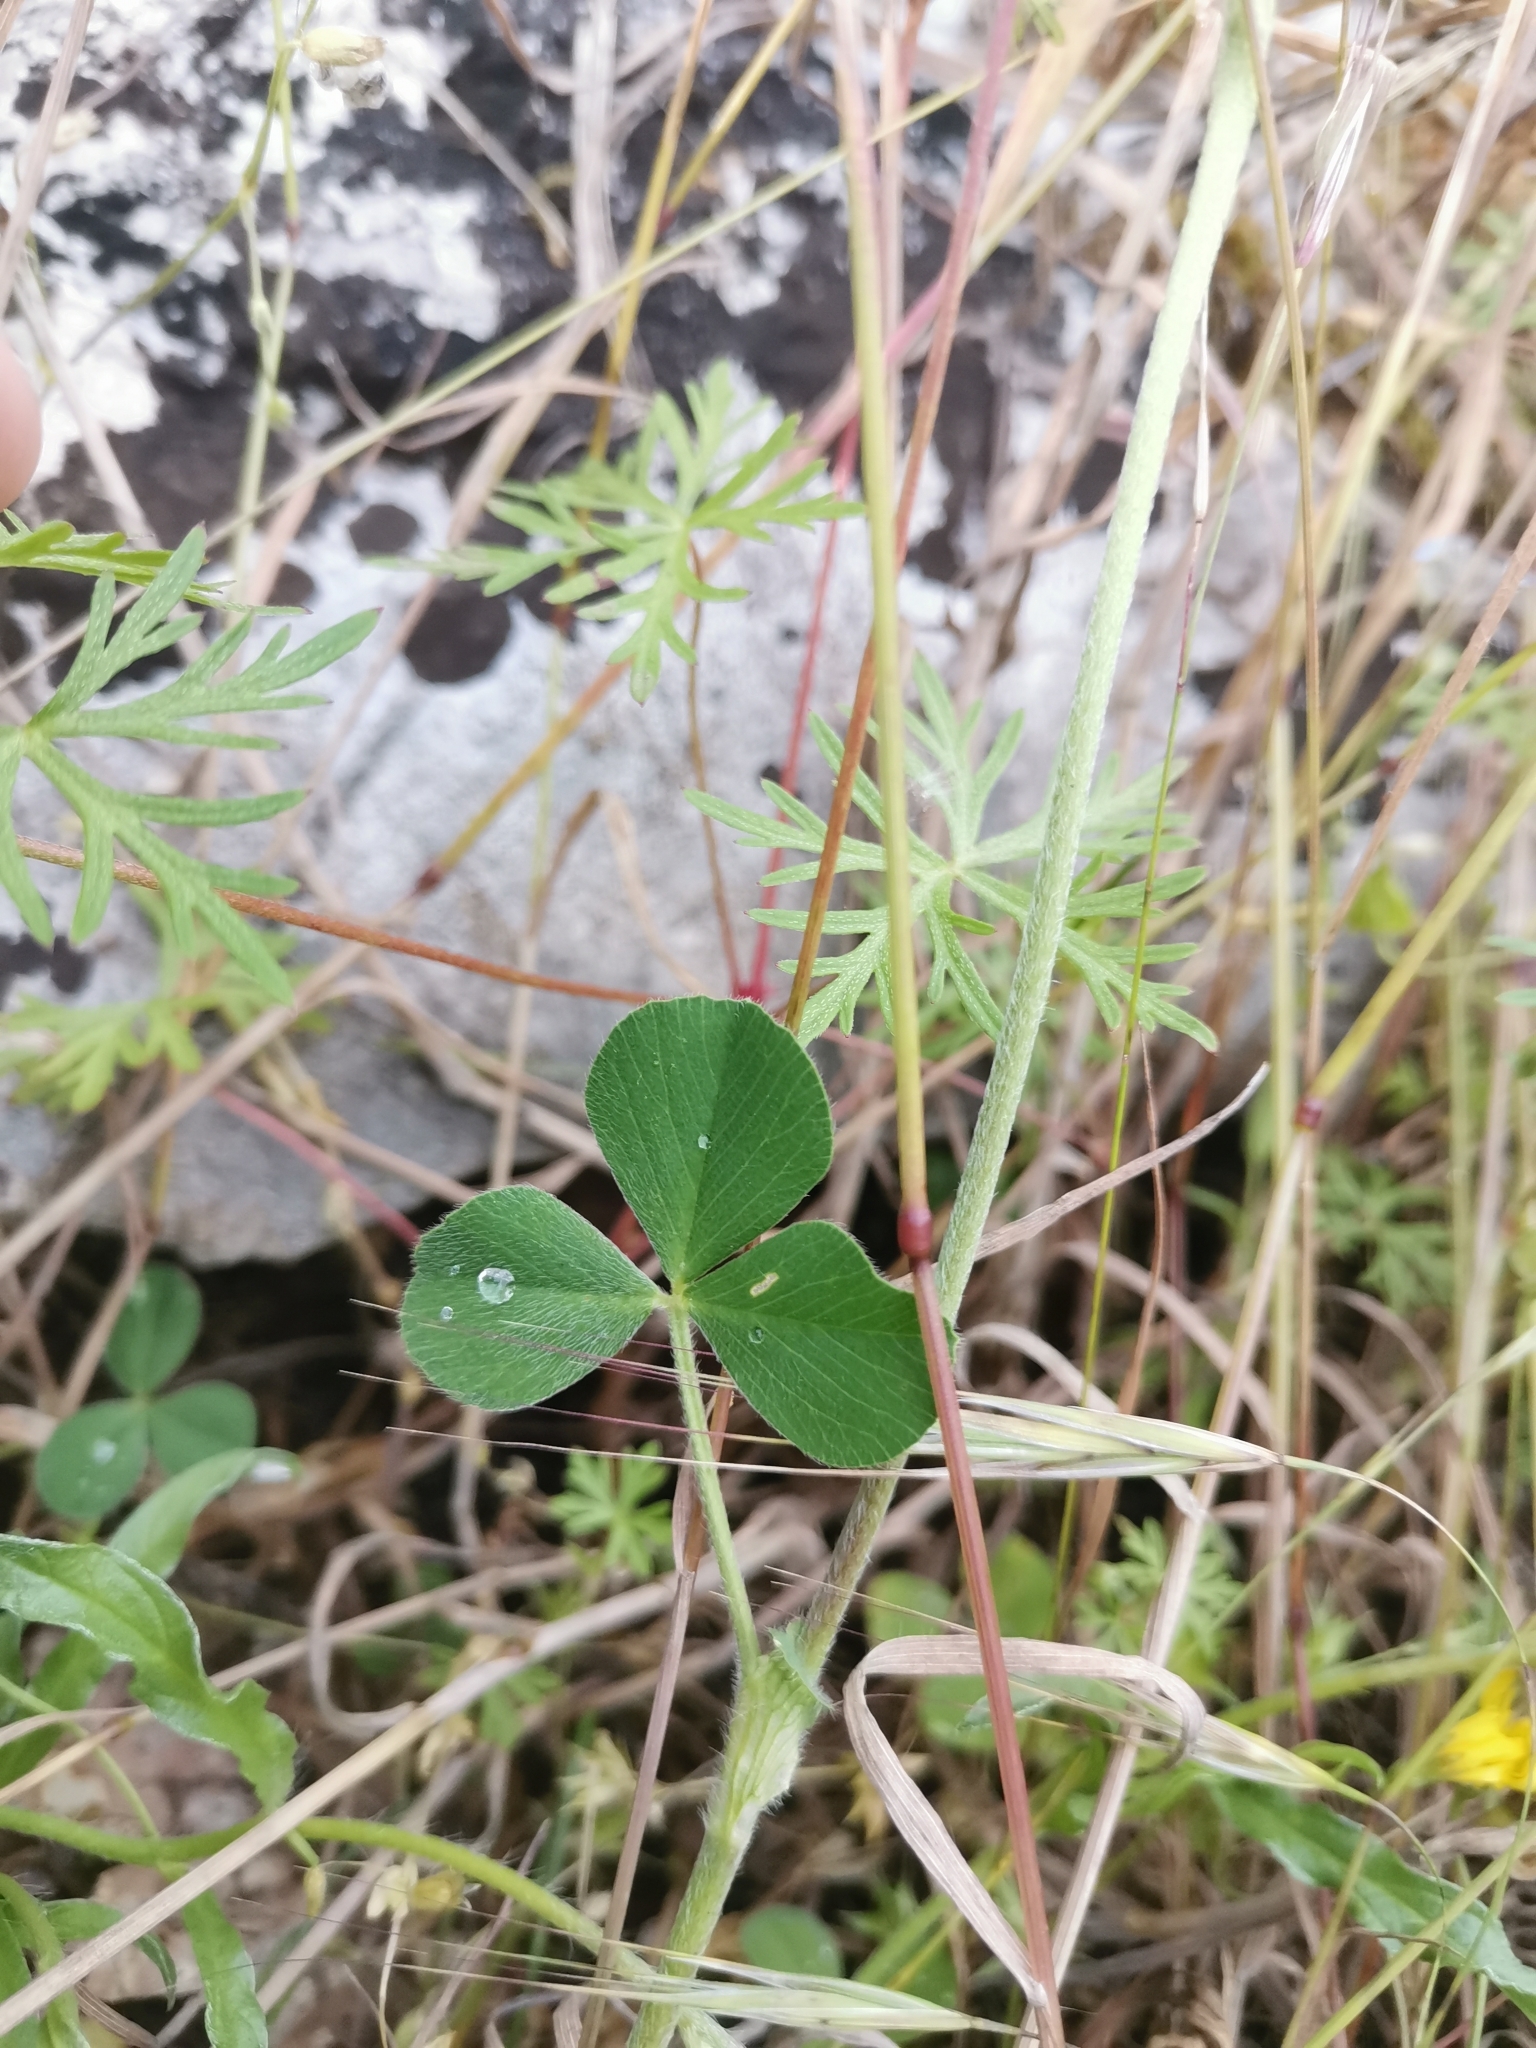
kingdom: Plantae
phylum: Tracheophyta
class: Magnoliopsida
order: Fabales
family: Fabaceae
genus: Trifolium
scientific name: Trifolium incarnatum
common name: Crimson clover
